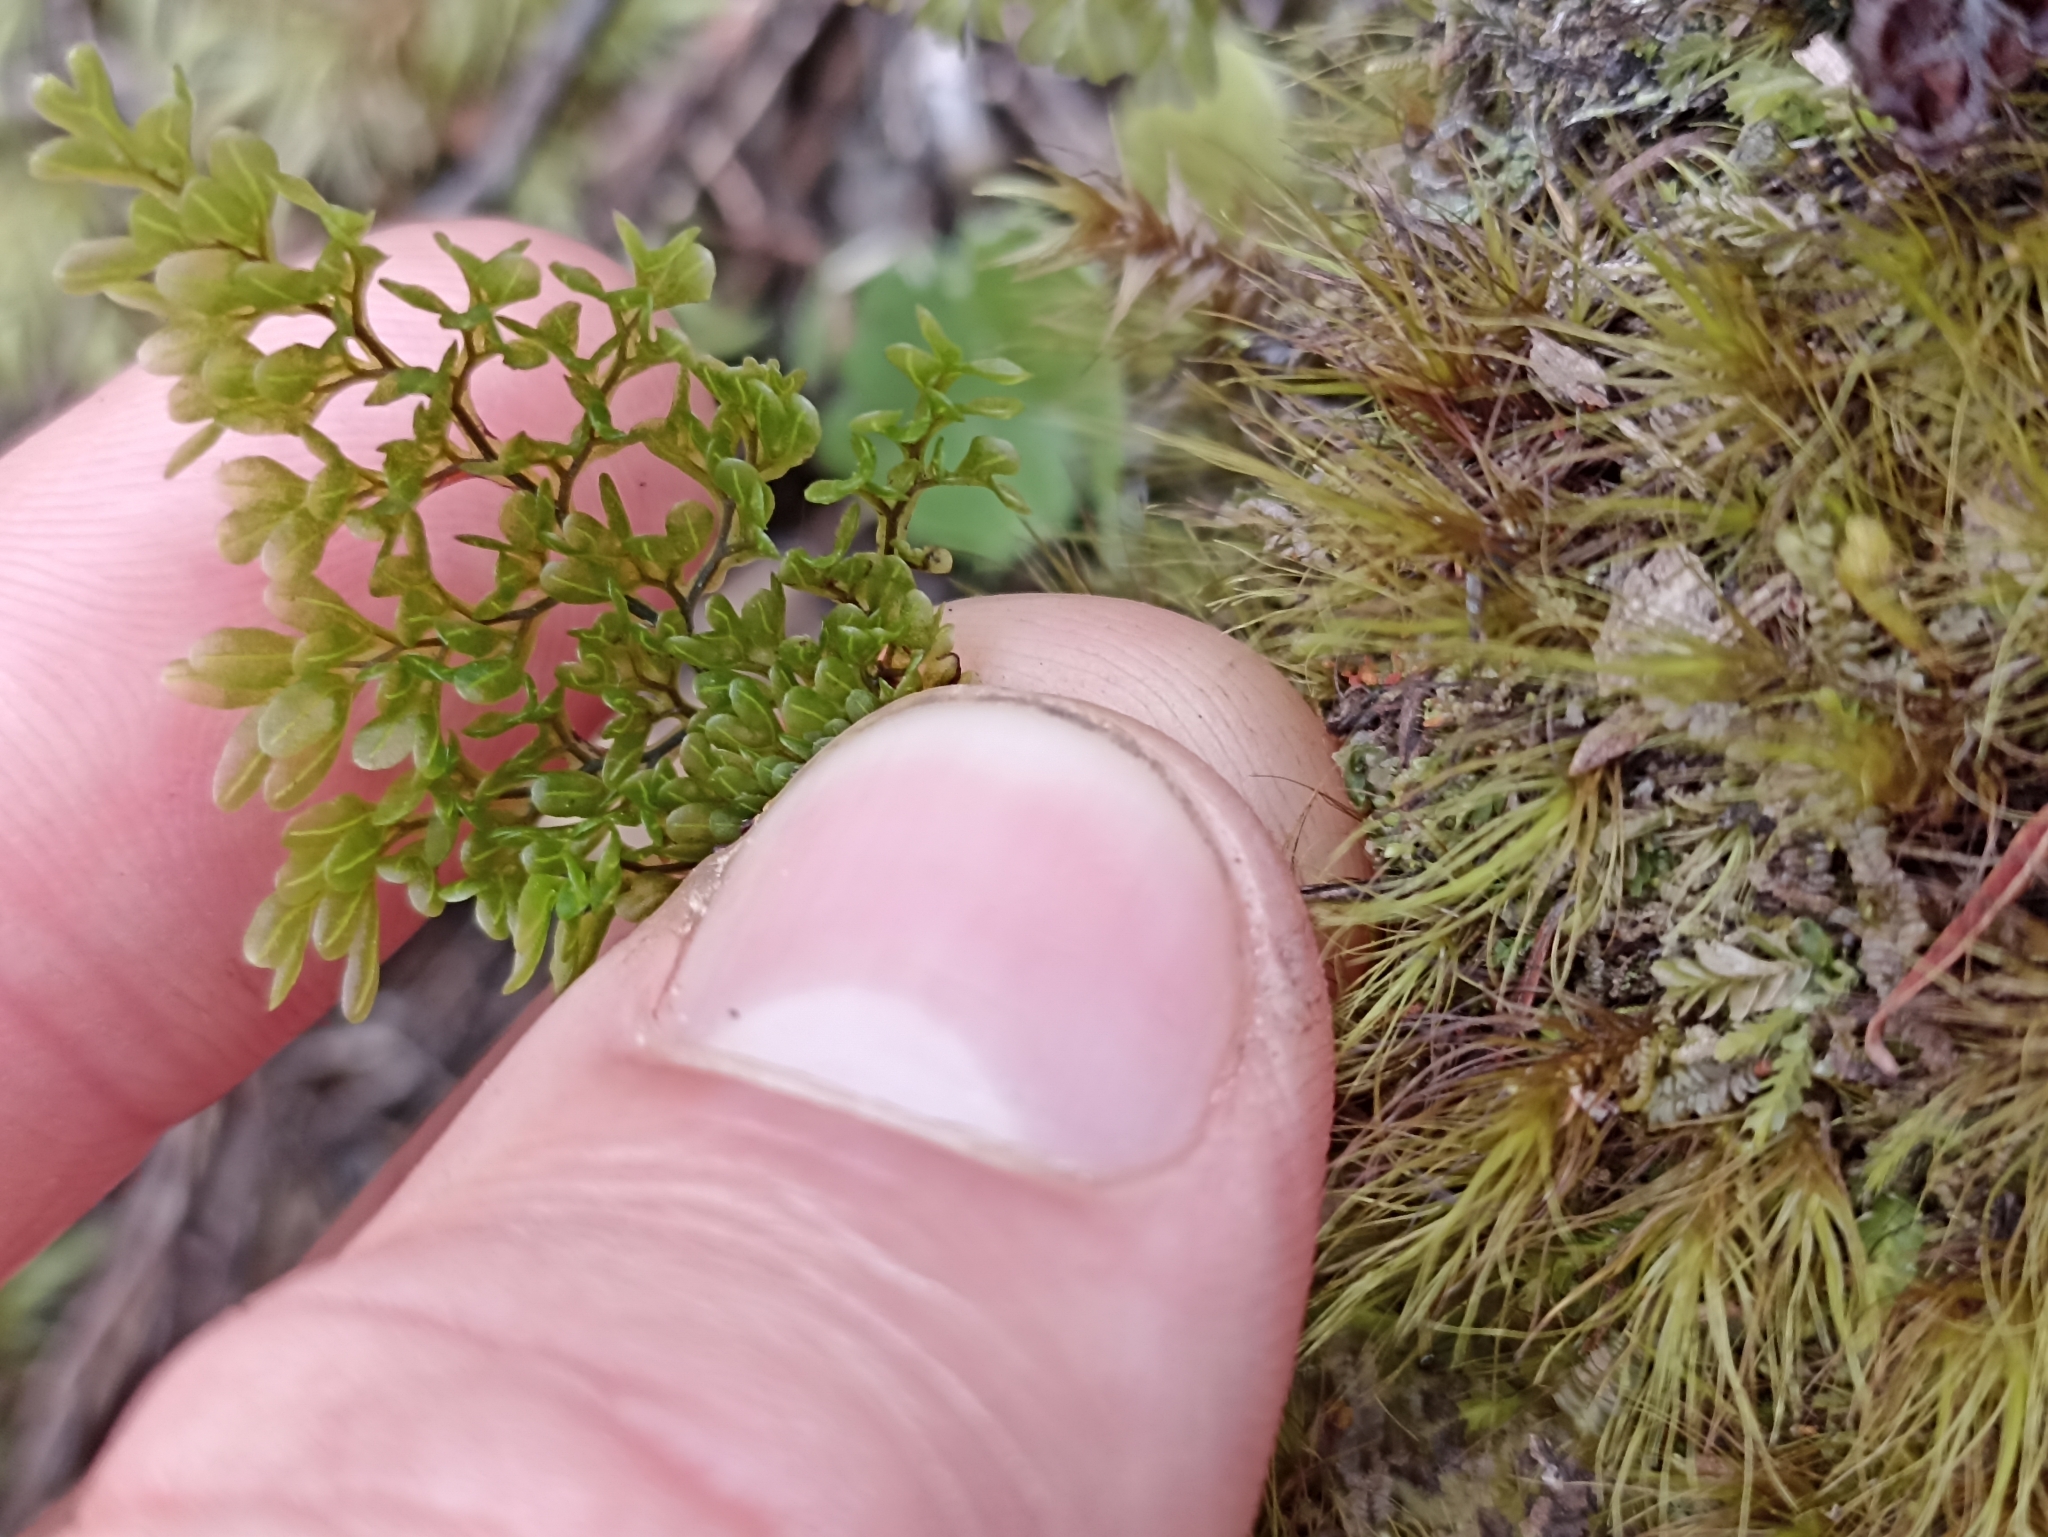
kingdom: Plantae
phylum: Tracheophyta
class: Polypodiopsida
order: Hymenophyllales
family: Hymenophyllaceae
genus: Hymenophyllum
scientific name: Hymenophyllum sanguinolentum
